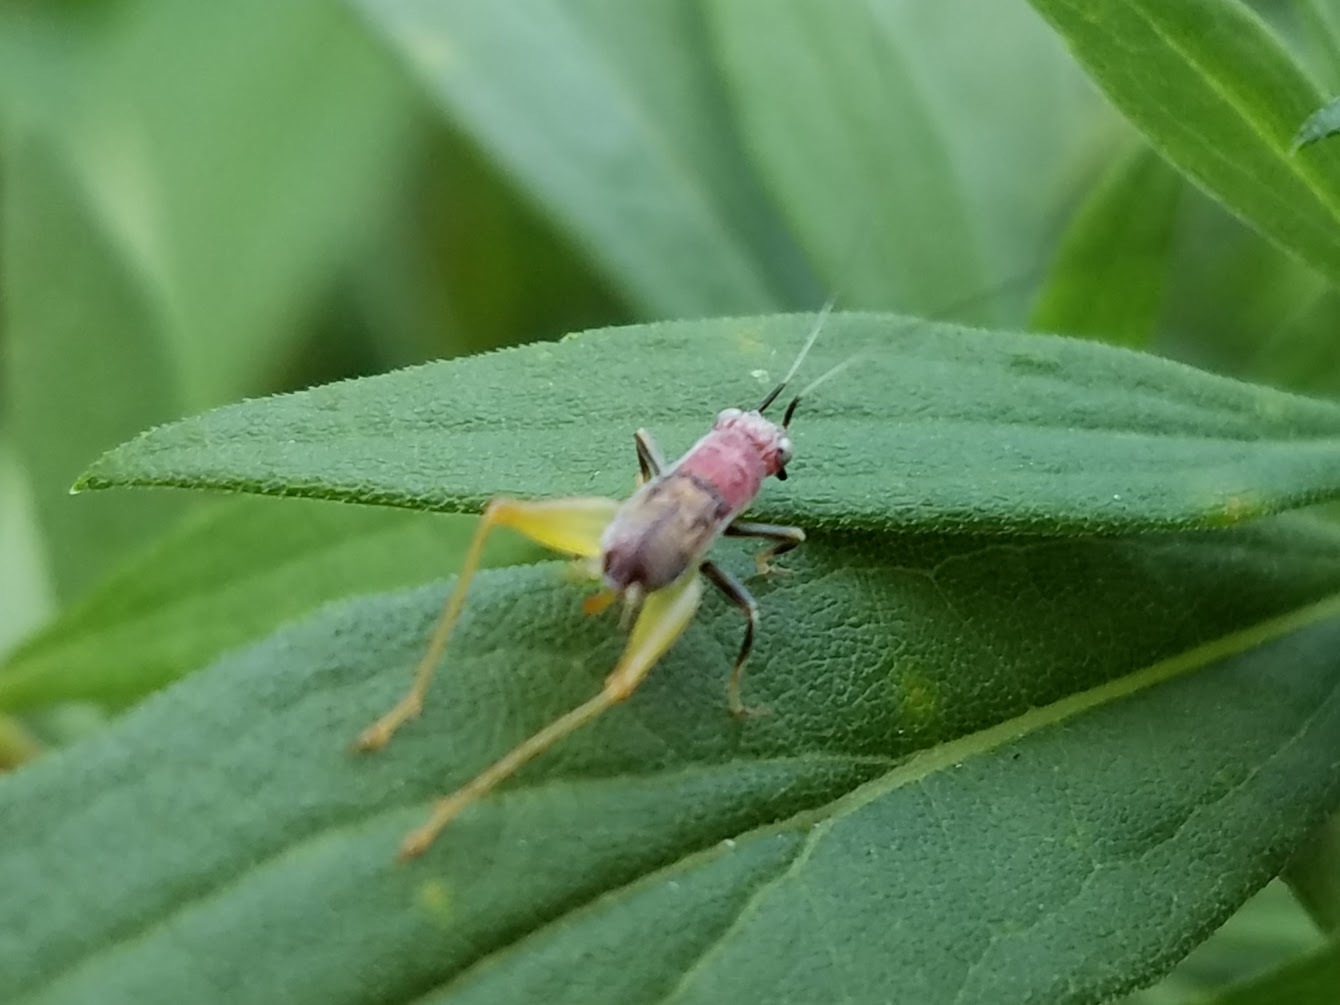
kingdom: Animalia
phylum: Arthropoda
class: Insecta
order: Orthoptera
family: Trigonidiidae
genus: Phyllopalpus
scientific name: Phyllopalpus pulchellus
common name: Handsome trig
